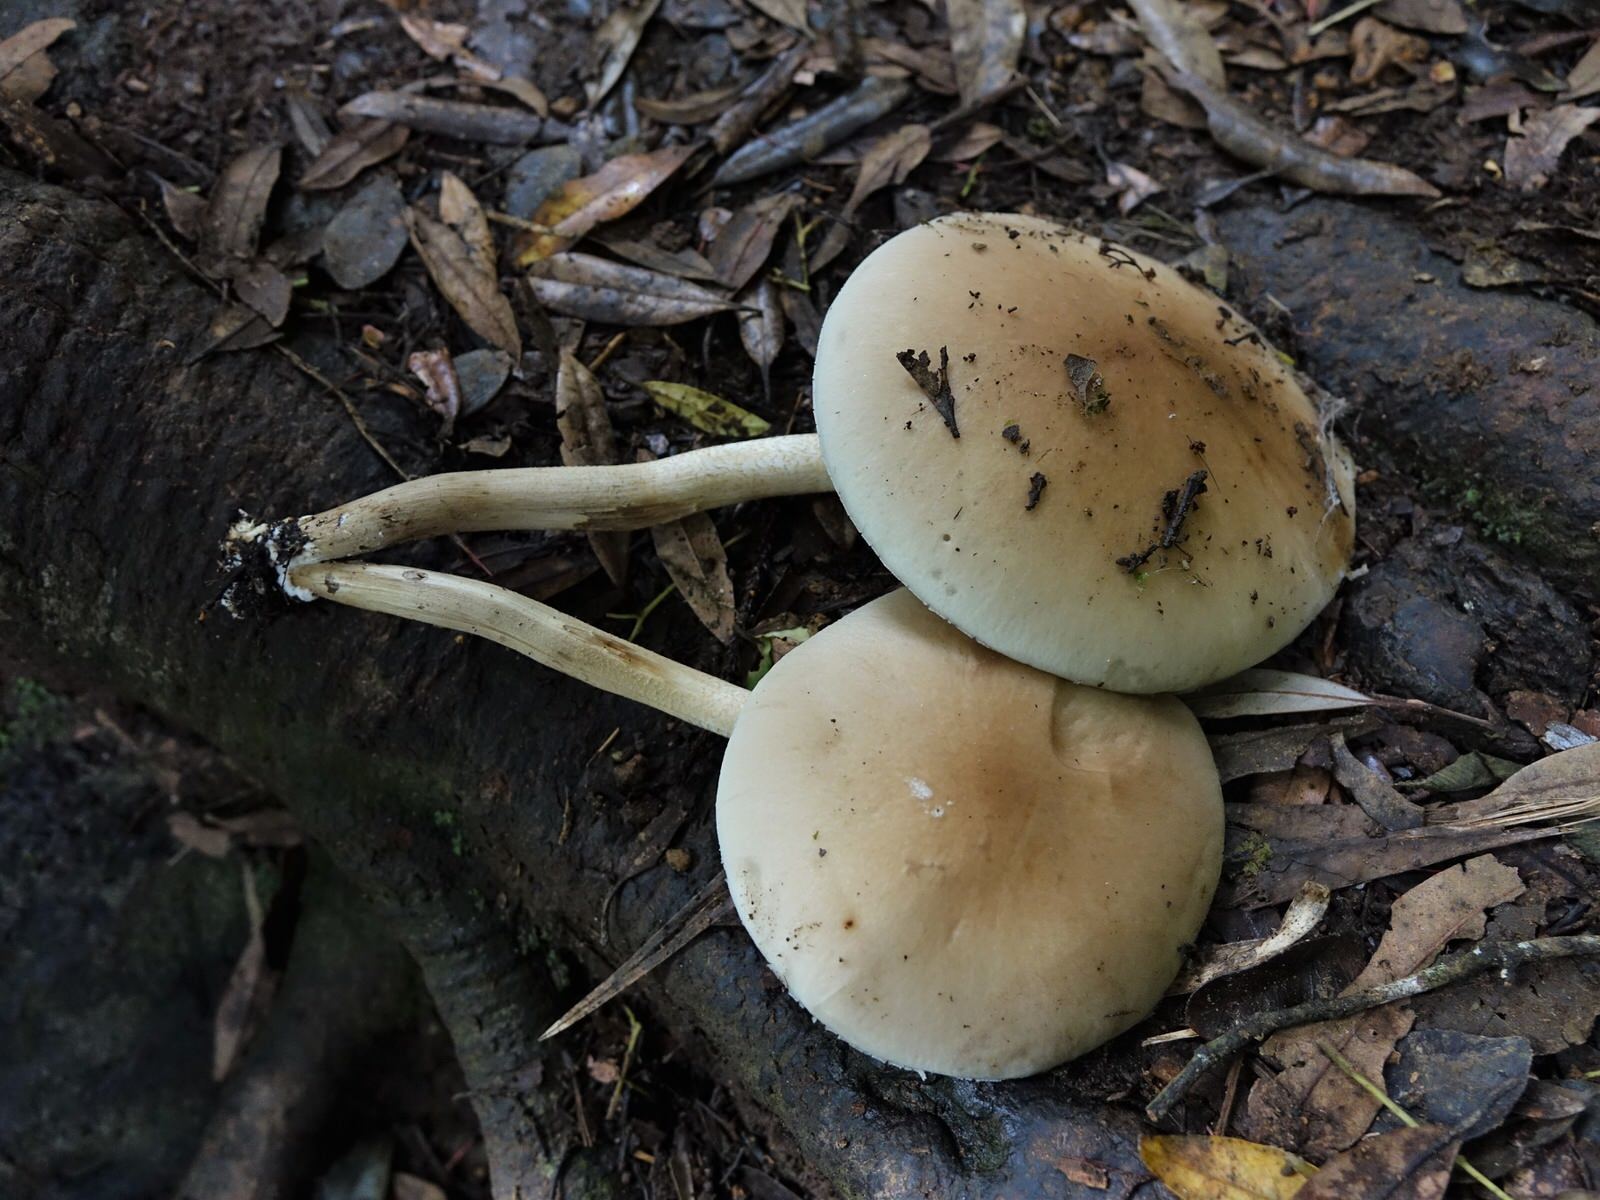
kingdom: Fungi
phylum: Basidiomycota
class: Agaricomycetes
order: Agaricales
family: Tubariaceae
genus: Cyclocybe
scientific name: Cyclocybe parasitica
